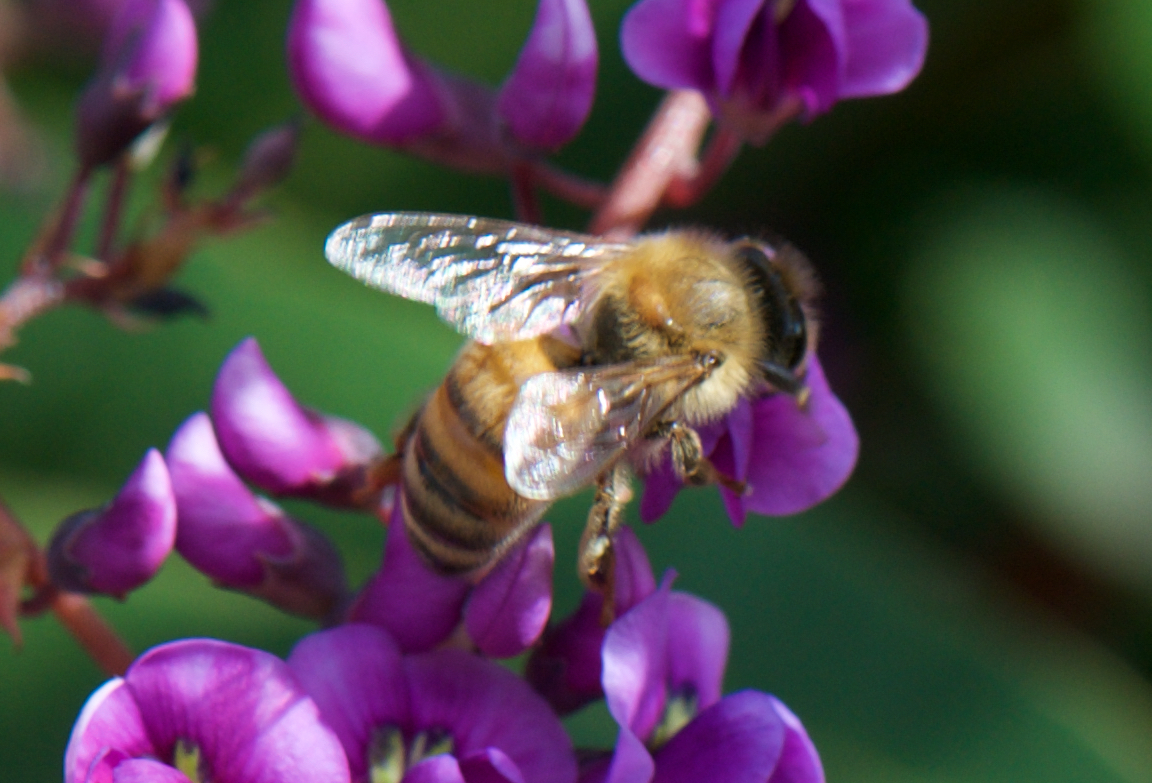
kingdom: Animalia
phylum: Arthropoda
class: Insecta
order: Hymenoptera
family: Apidae
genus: Apis
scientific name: Apis mellifera
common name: Honey bee
